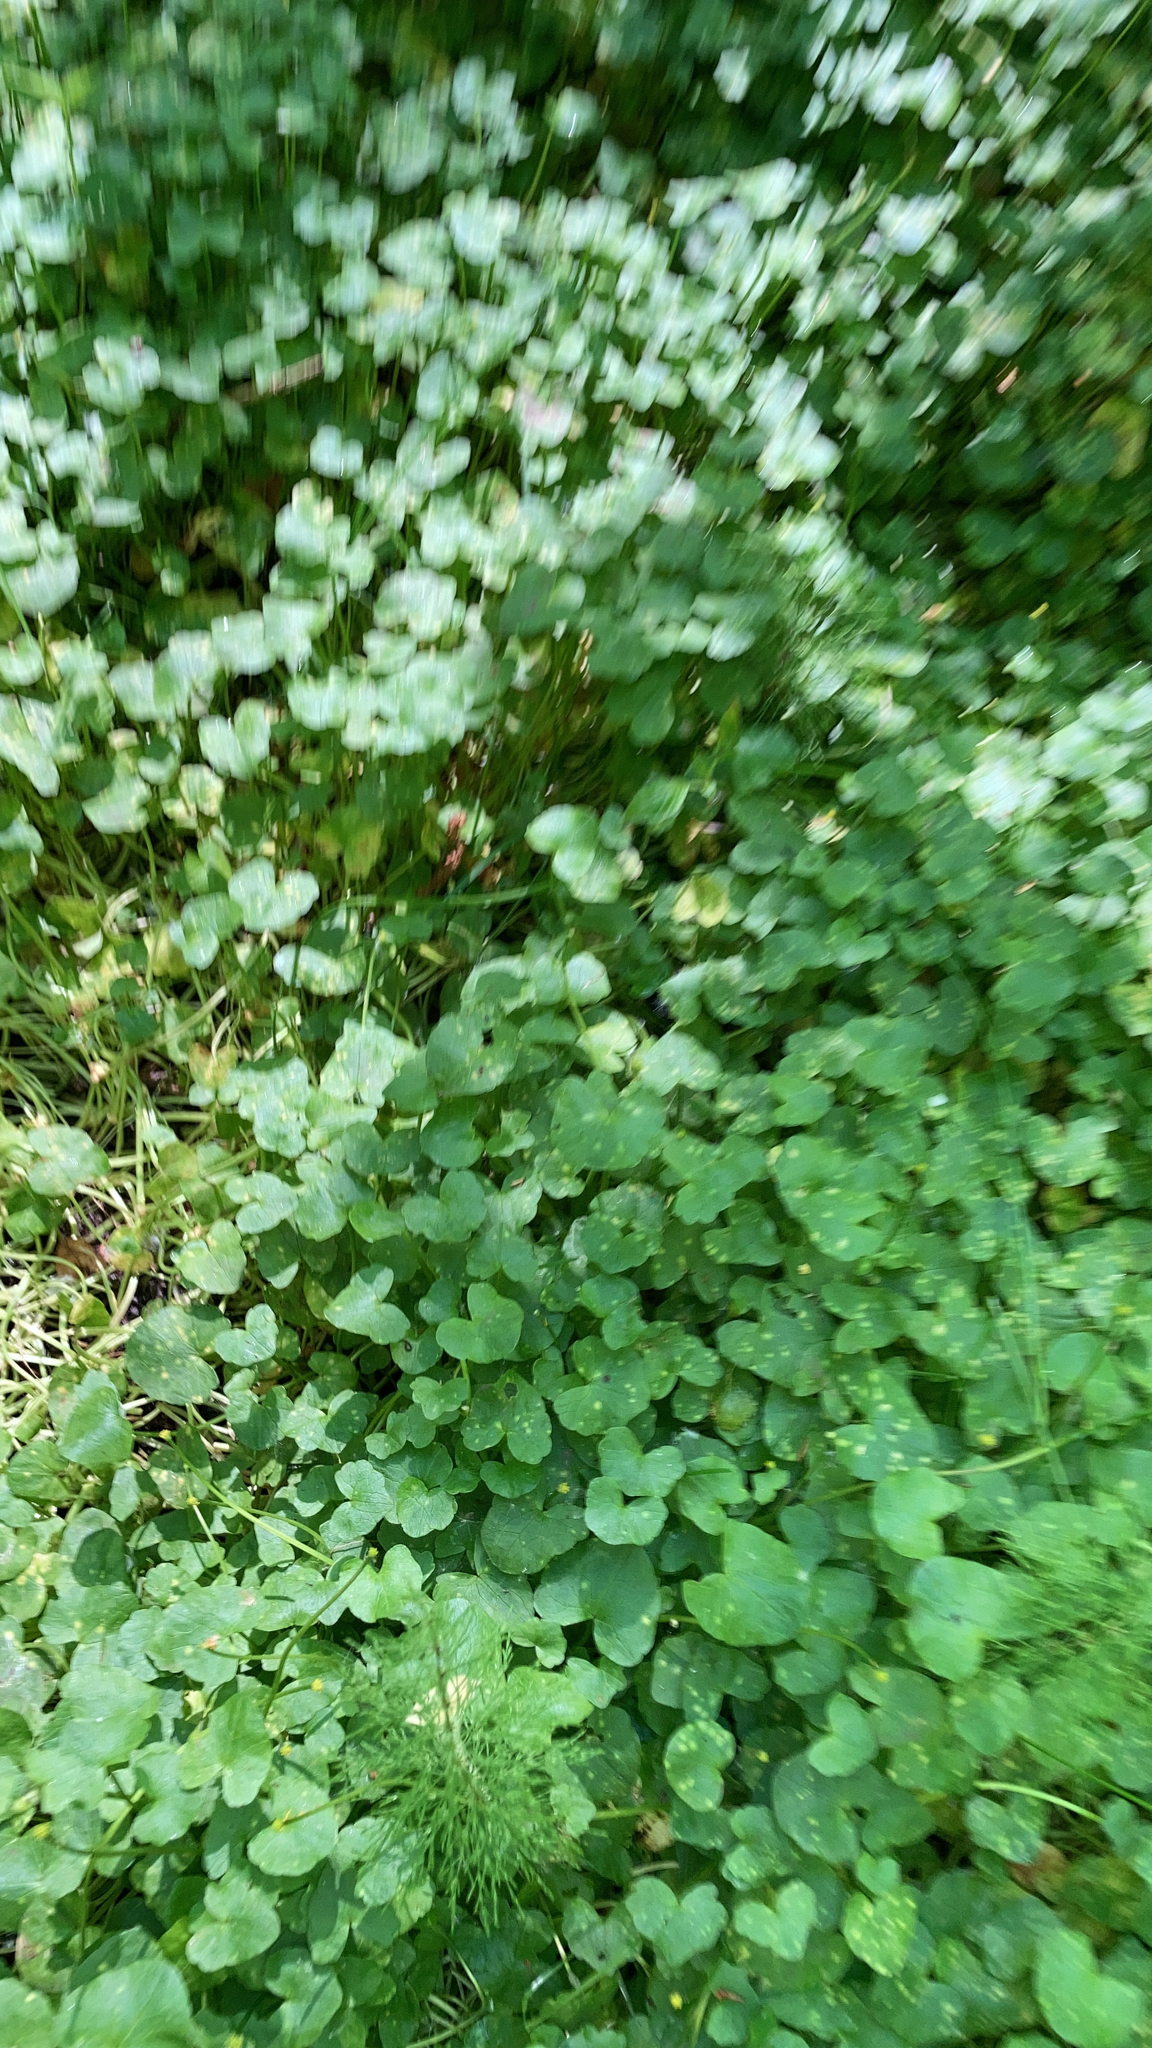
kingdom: Plantae
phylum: Tracheophyta
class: Magnoliopsida
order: Ranunculales
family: Ranunculaceae
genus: Ficaria
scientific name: Ficaria verna
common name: Lesser celandine
